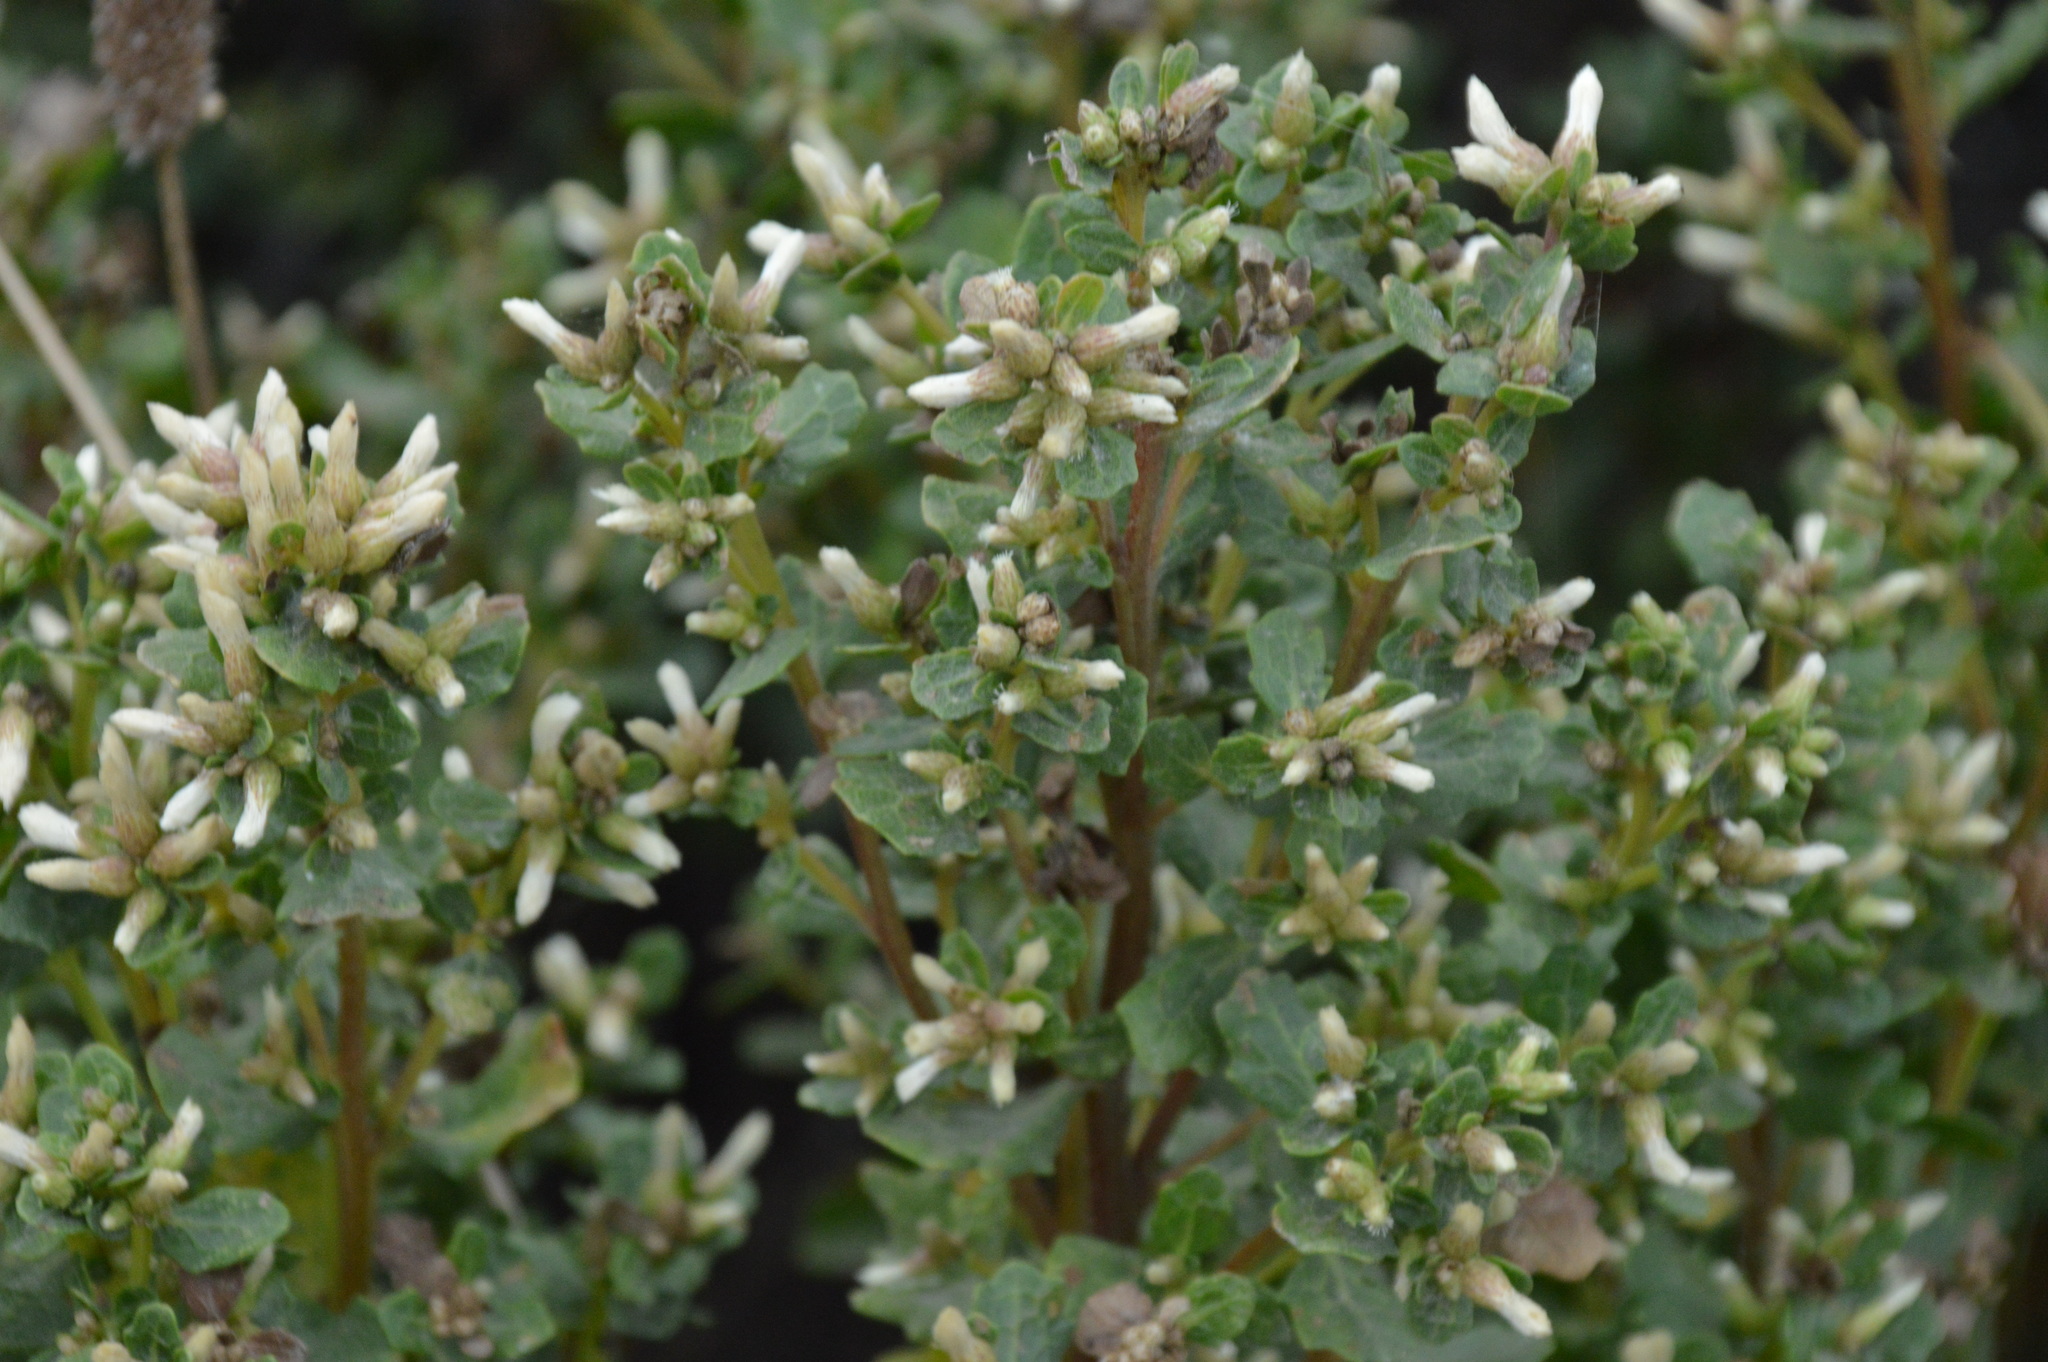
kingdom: Plantae
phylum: Tracheophyta
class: Magnoliopsida
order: Asterales
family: Asteraceae
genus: Baccharis
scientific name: Baccharis pilularis
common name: Coyotebrush
